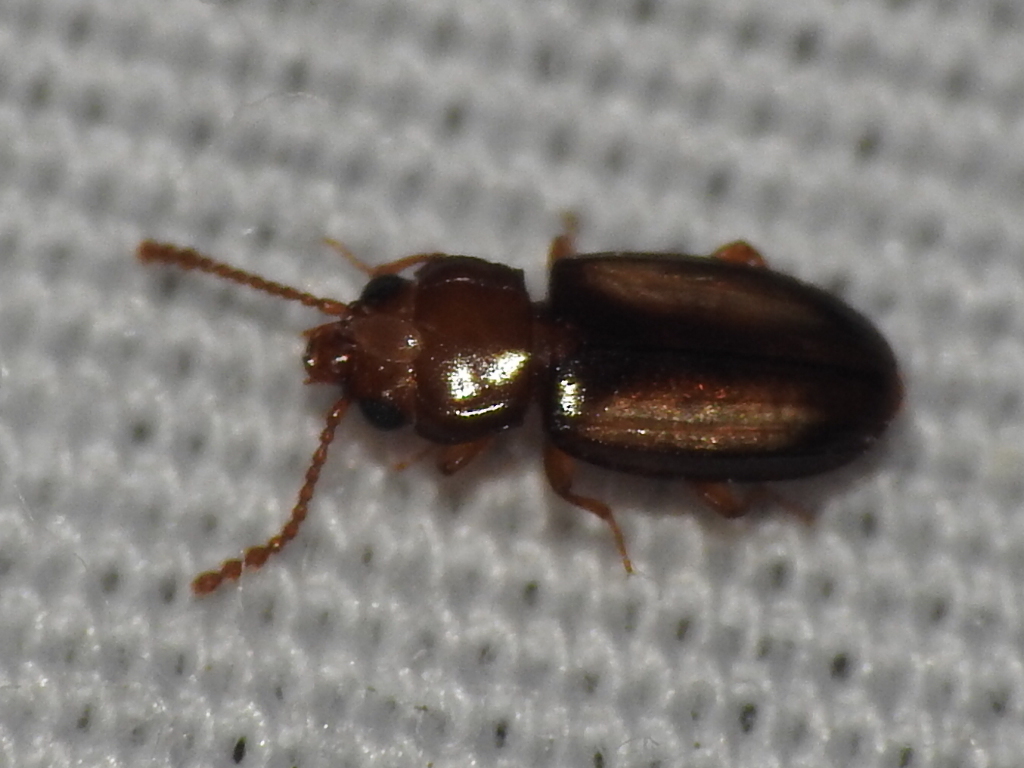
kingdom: Animalia
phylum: Arthropoda
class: Insecta
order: Coleoptera
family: Laemophloeidae
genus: Laemophloeus
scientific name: Laemophloeus terminalis
